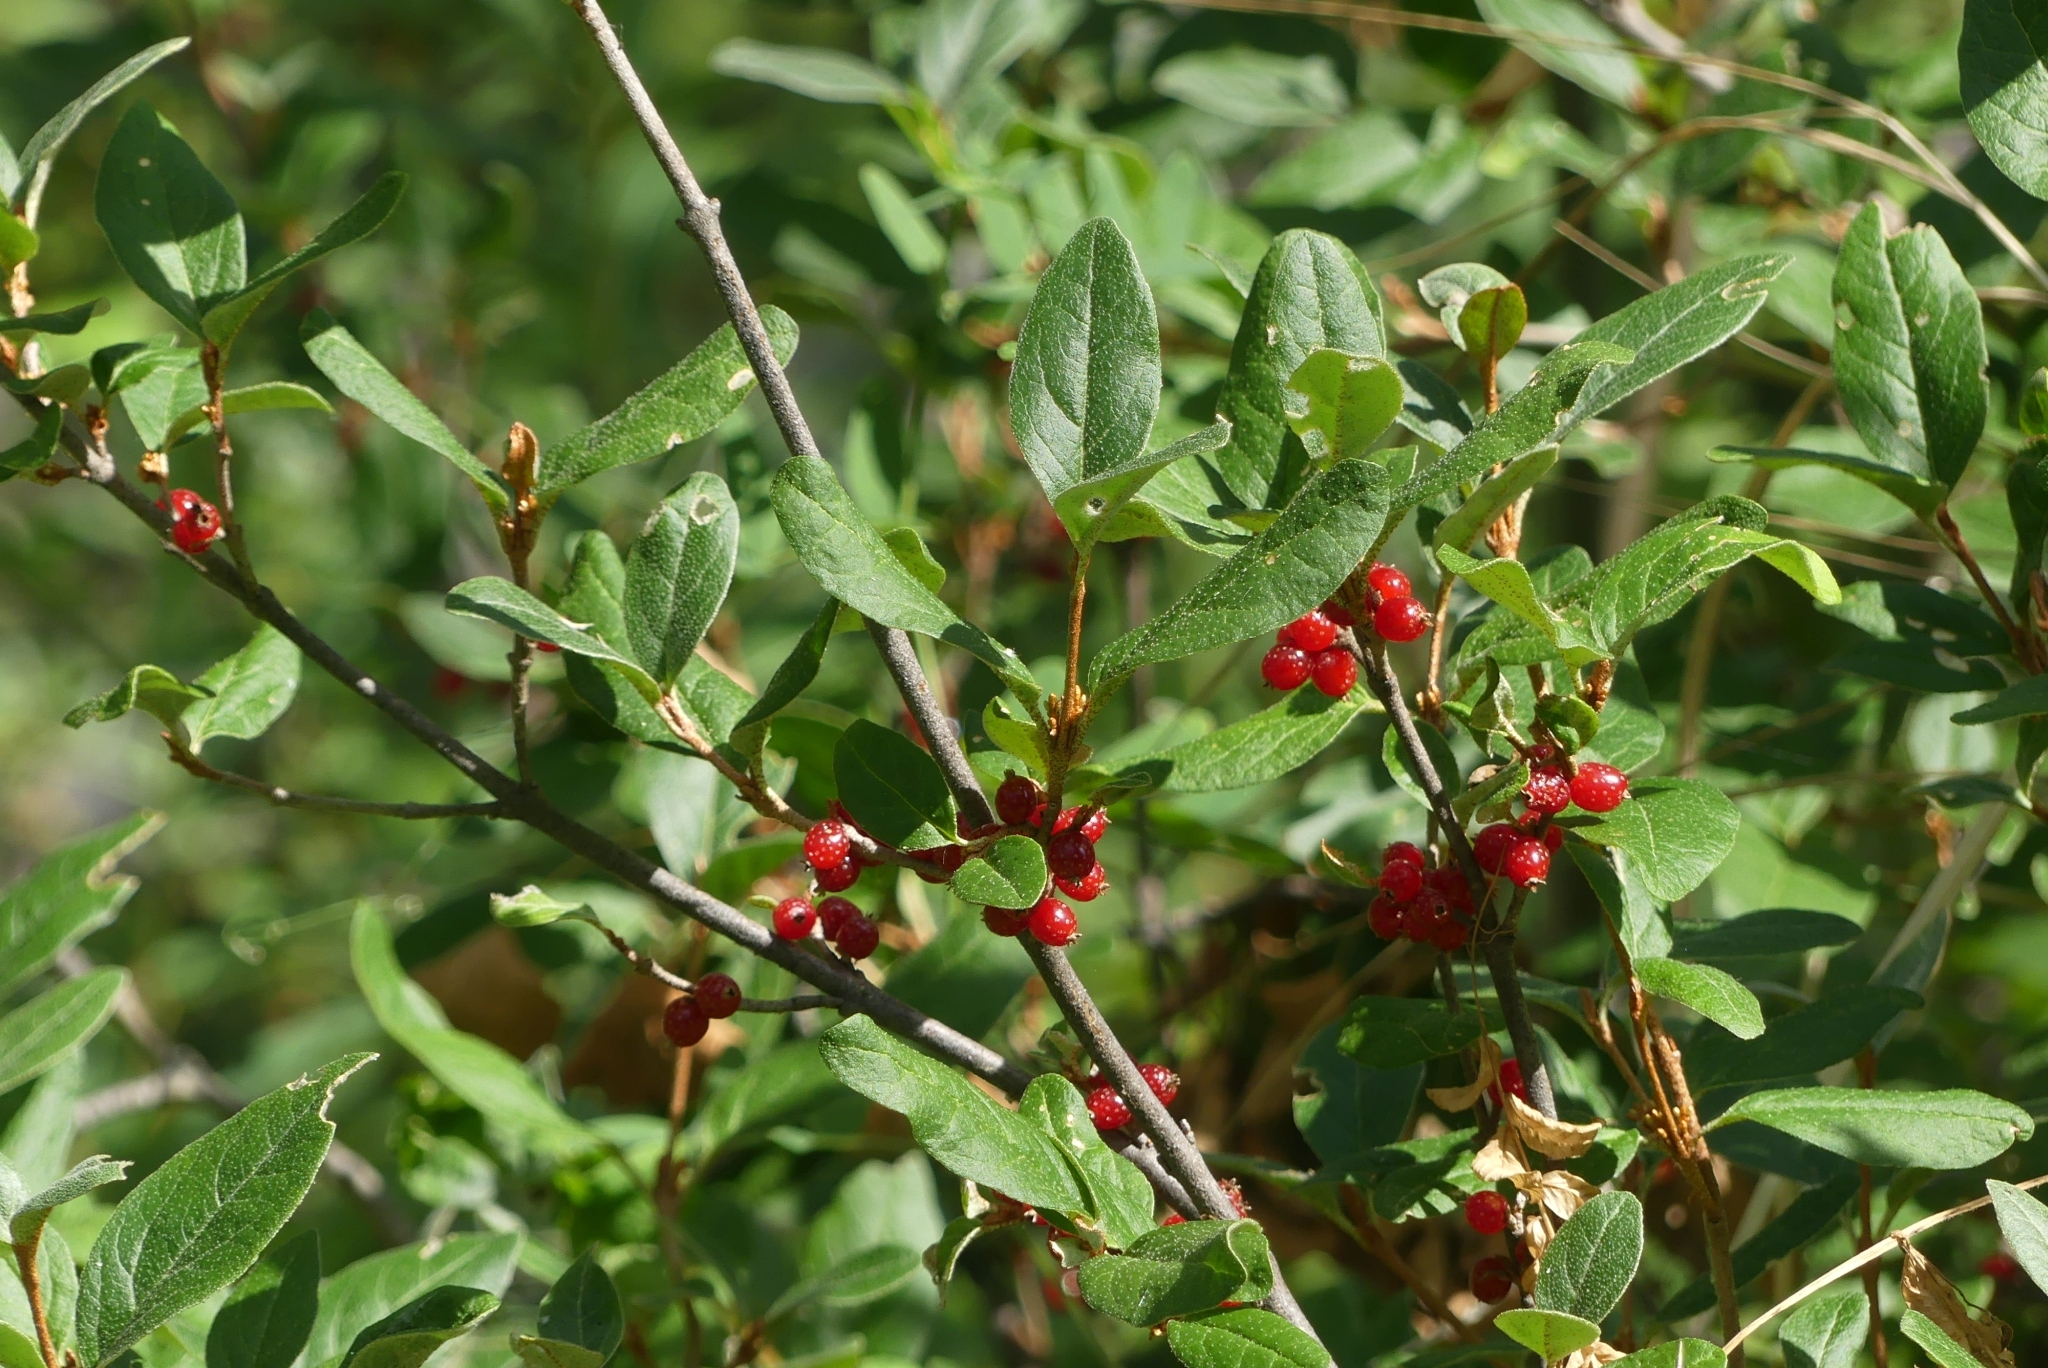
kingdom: Plantae
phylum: Tracheophyta
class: Magnoliopsida
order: Rosales
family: Elaeagnaceae
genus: Shepherdia
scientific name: Shepherdia canadensis
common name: Soapberry
